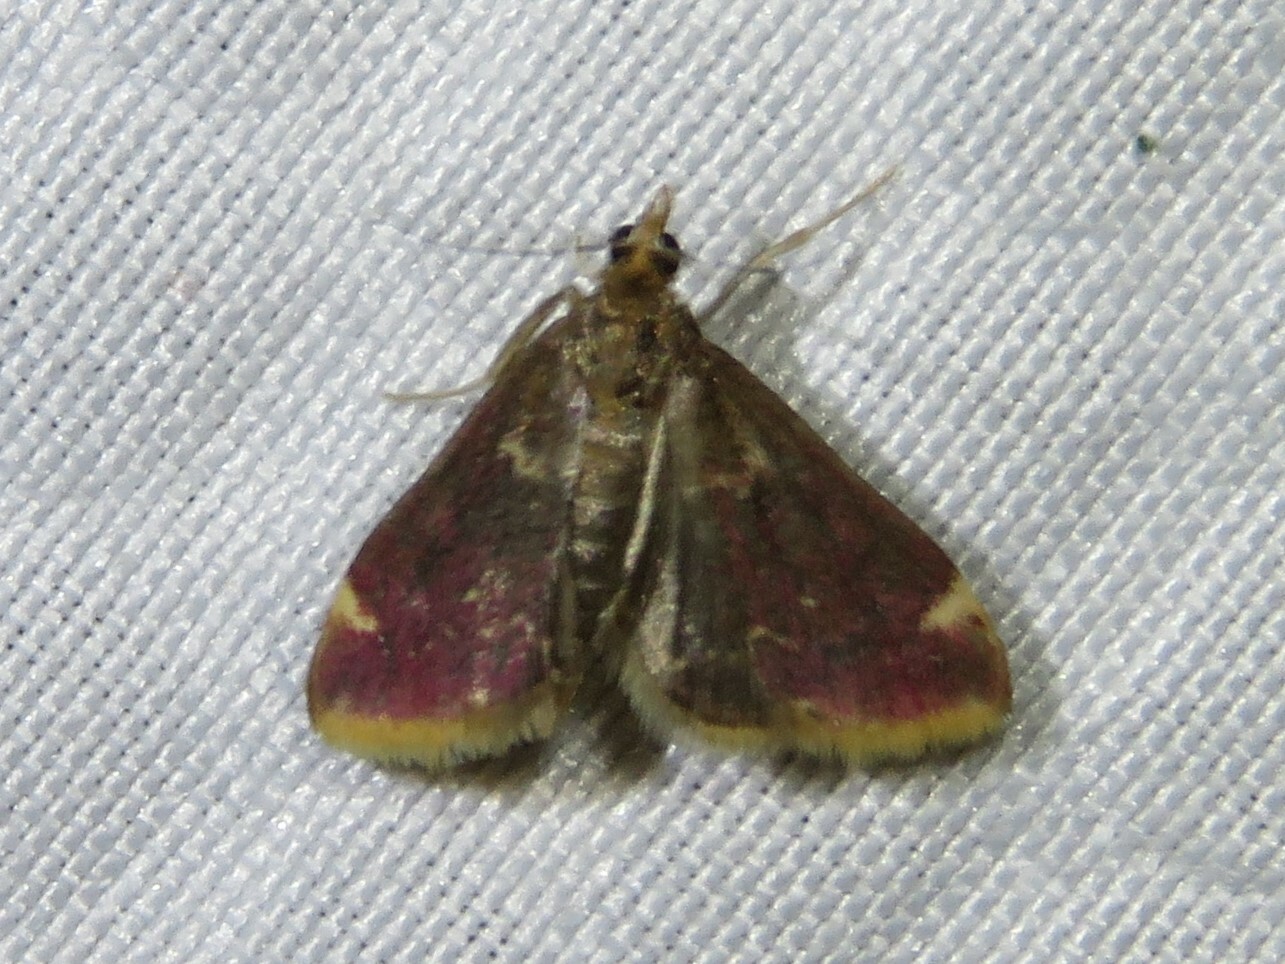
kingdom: Animalia
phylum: Arthropoda
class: Insecta
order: Lepidoptera
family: Crambidae
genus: Pyrausta
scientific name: Pyrausta signatalis
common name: Raspberry pyrausta moth
